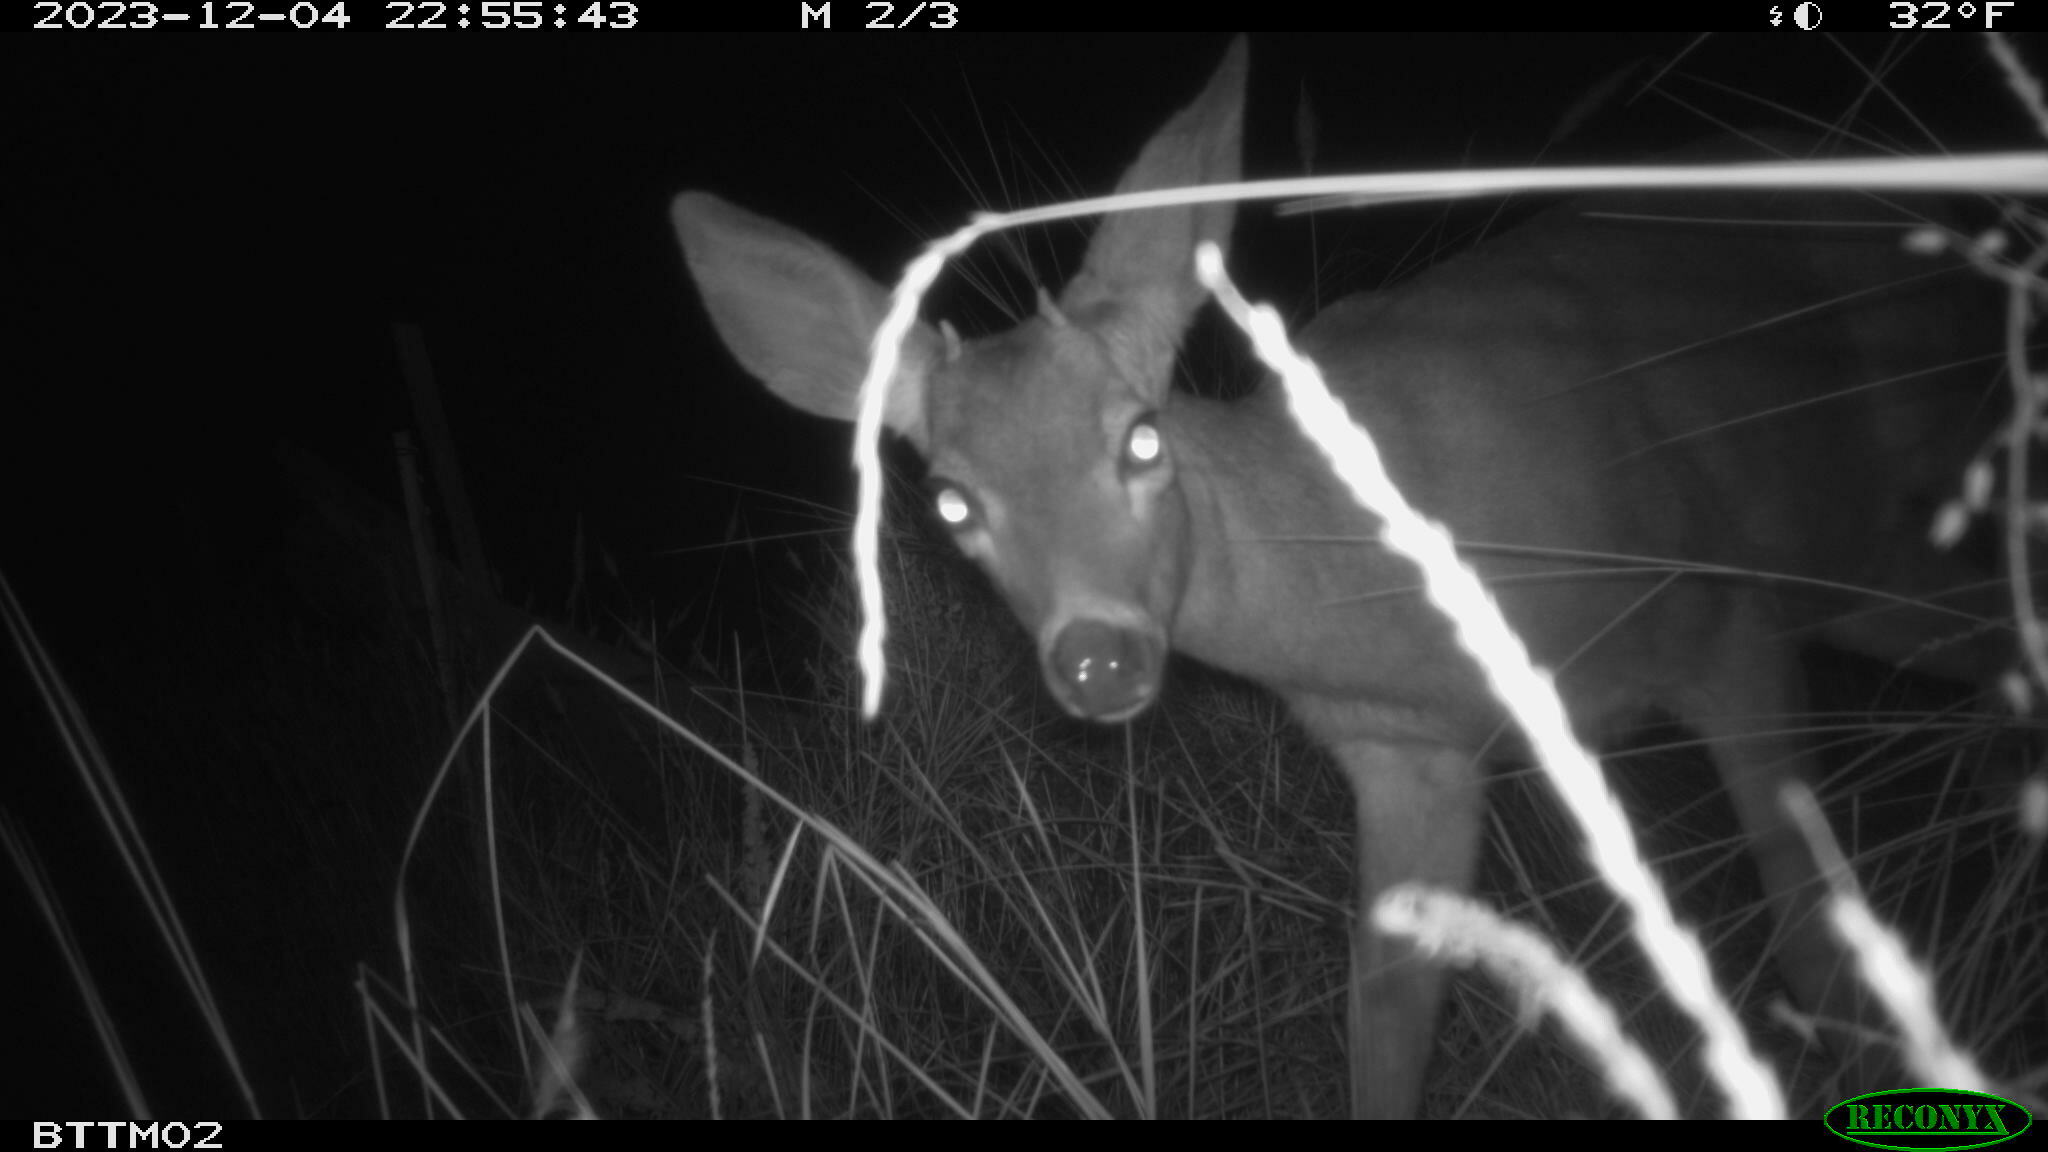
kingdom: Animalia
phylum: Chordata
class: Mammalia
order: Artiodactyla
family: Cervidae
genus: Odocoileus
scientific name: Odocoileus hemionus
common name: Mule deer
